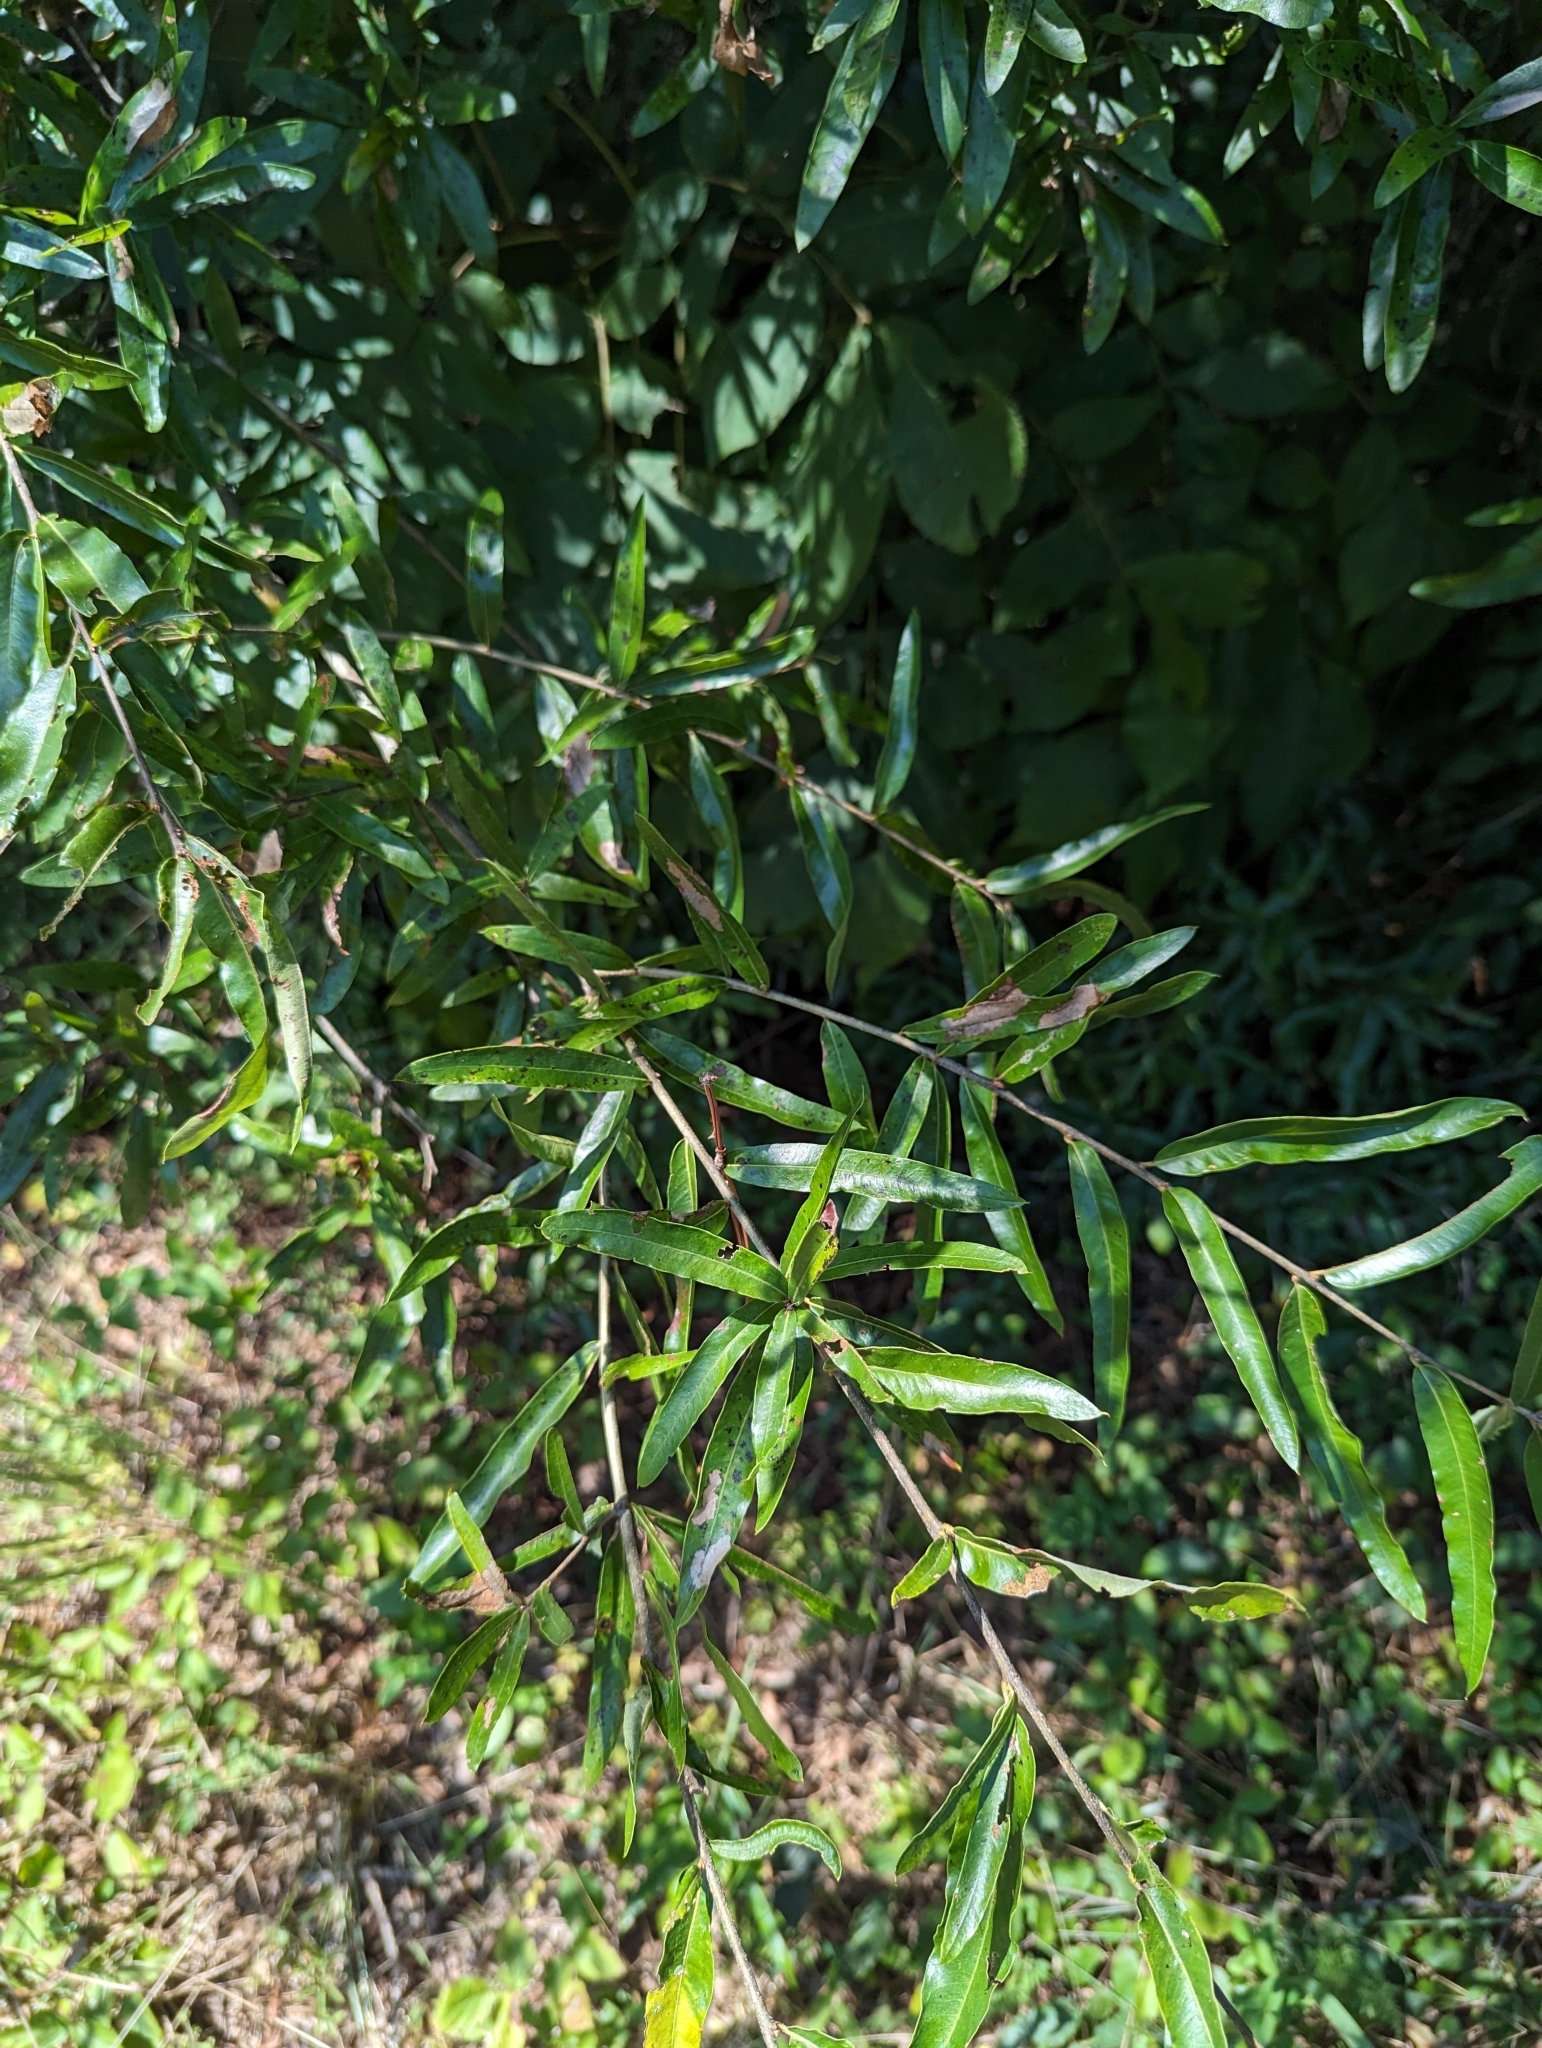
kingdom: Plantae
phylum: Tracheophyta
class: Magnoliopsida
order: Fagales
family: Fagaceae
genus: Quercus
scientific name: Quercus phellos
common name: Willow oak
